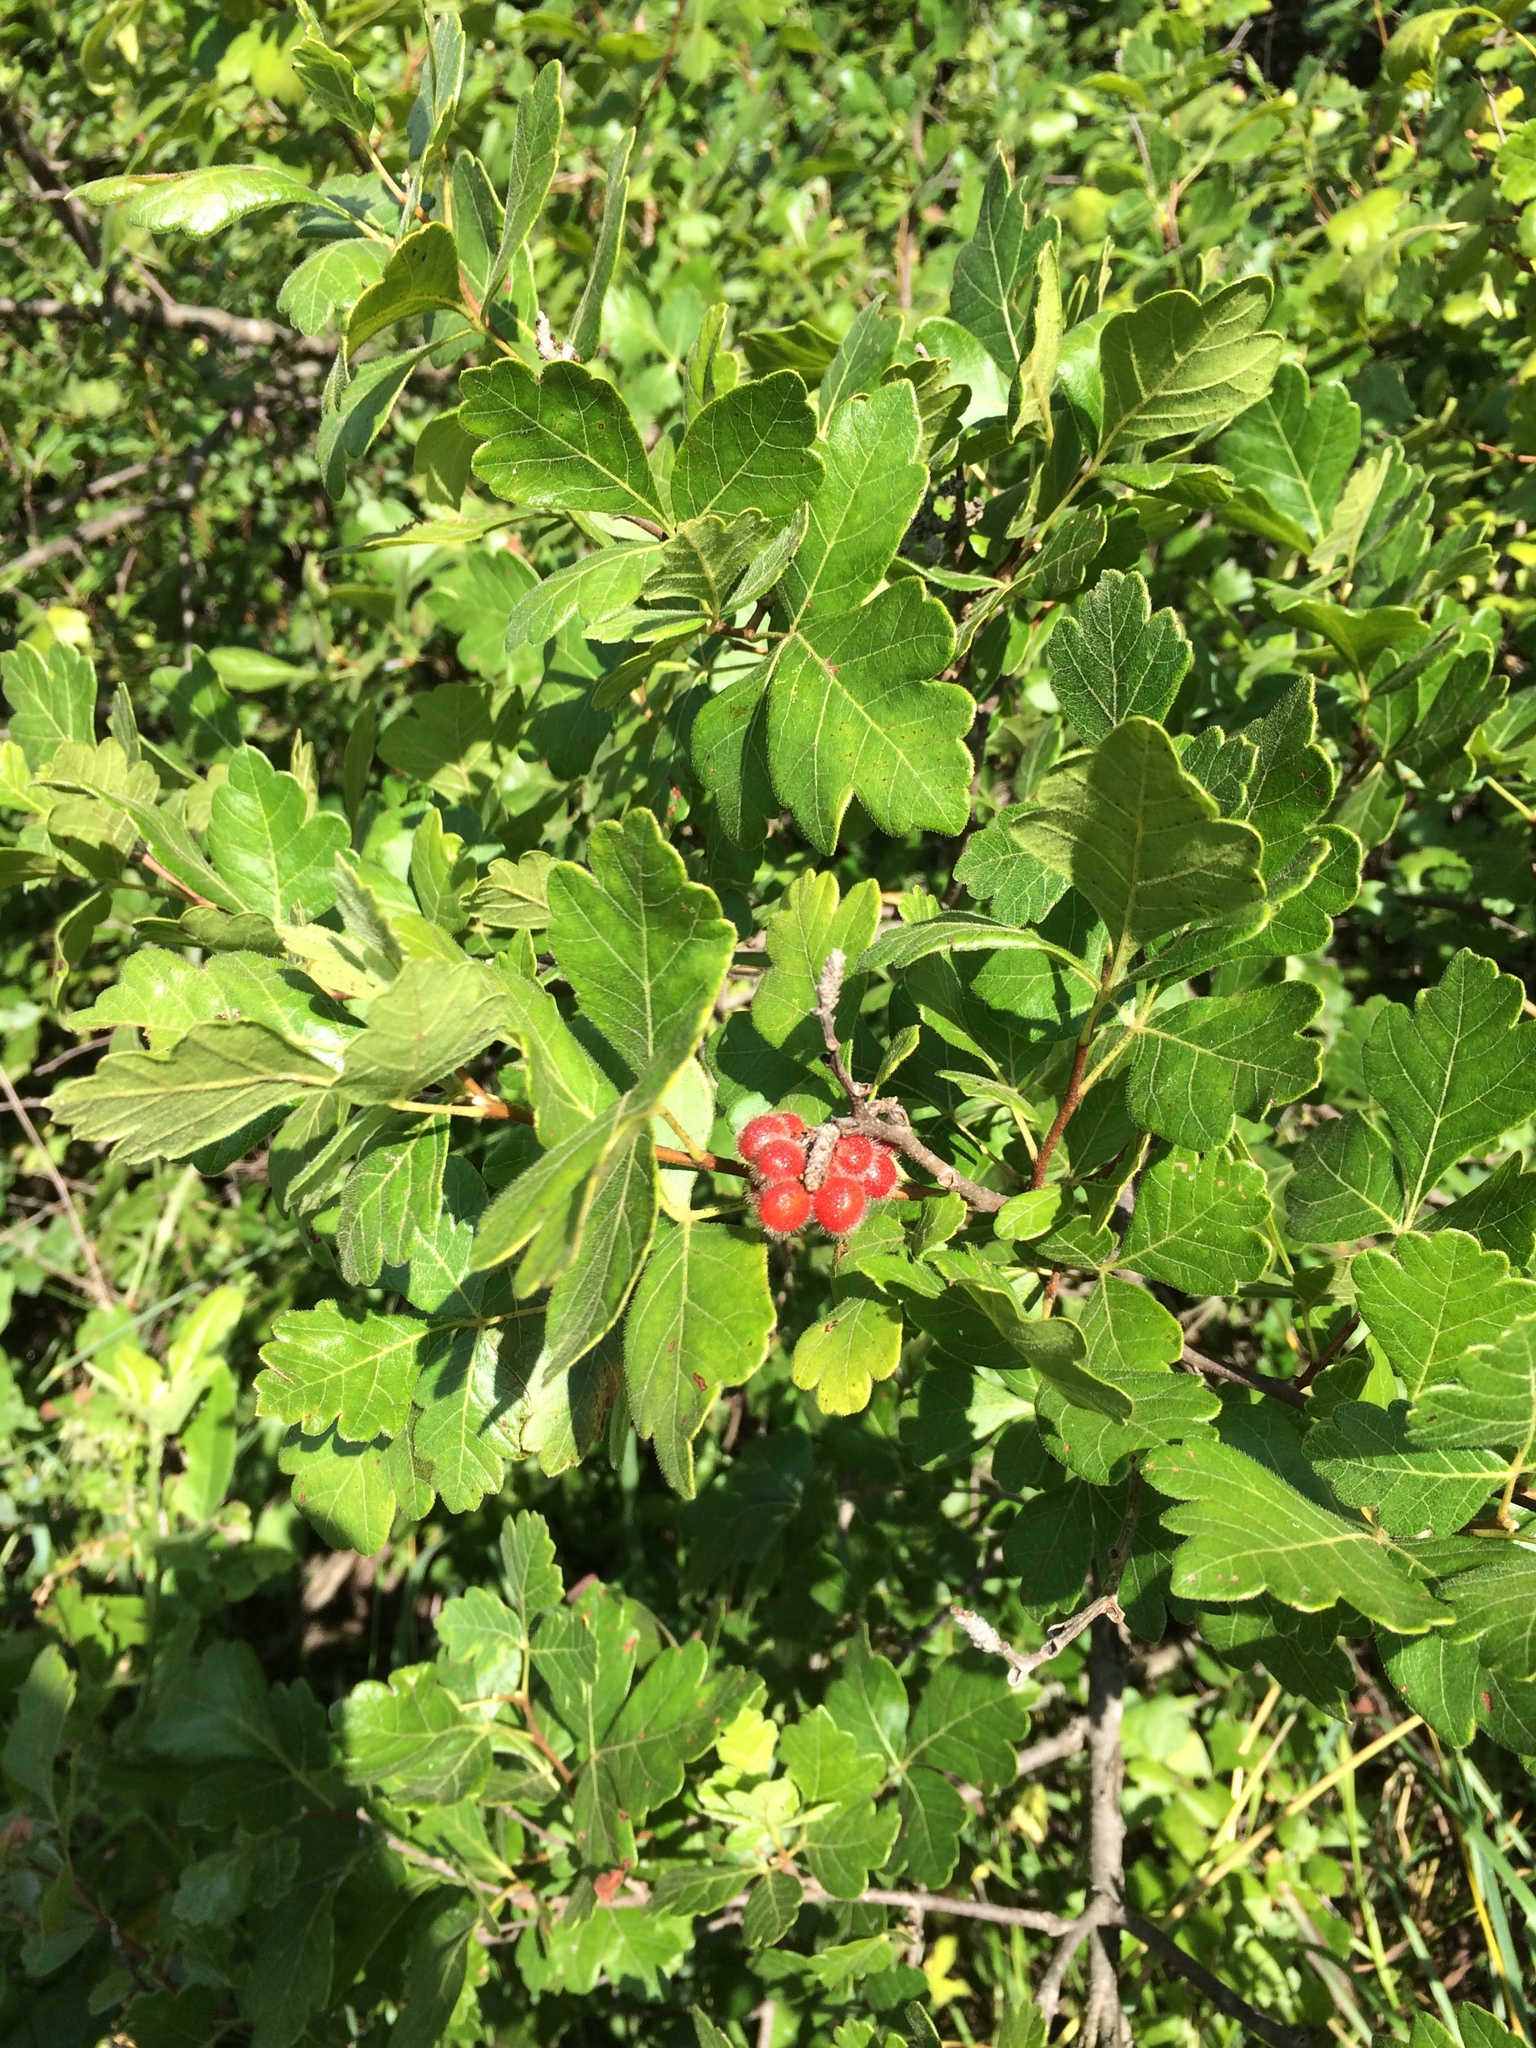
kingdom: Plantae
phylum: Tracheophyta
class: Magnoliopsida
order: Sapindales
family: Anacardiaceae
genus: Rhus
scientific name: Rhus aromatica
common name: Aromatic sumac
